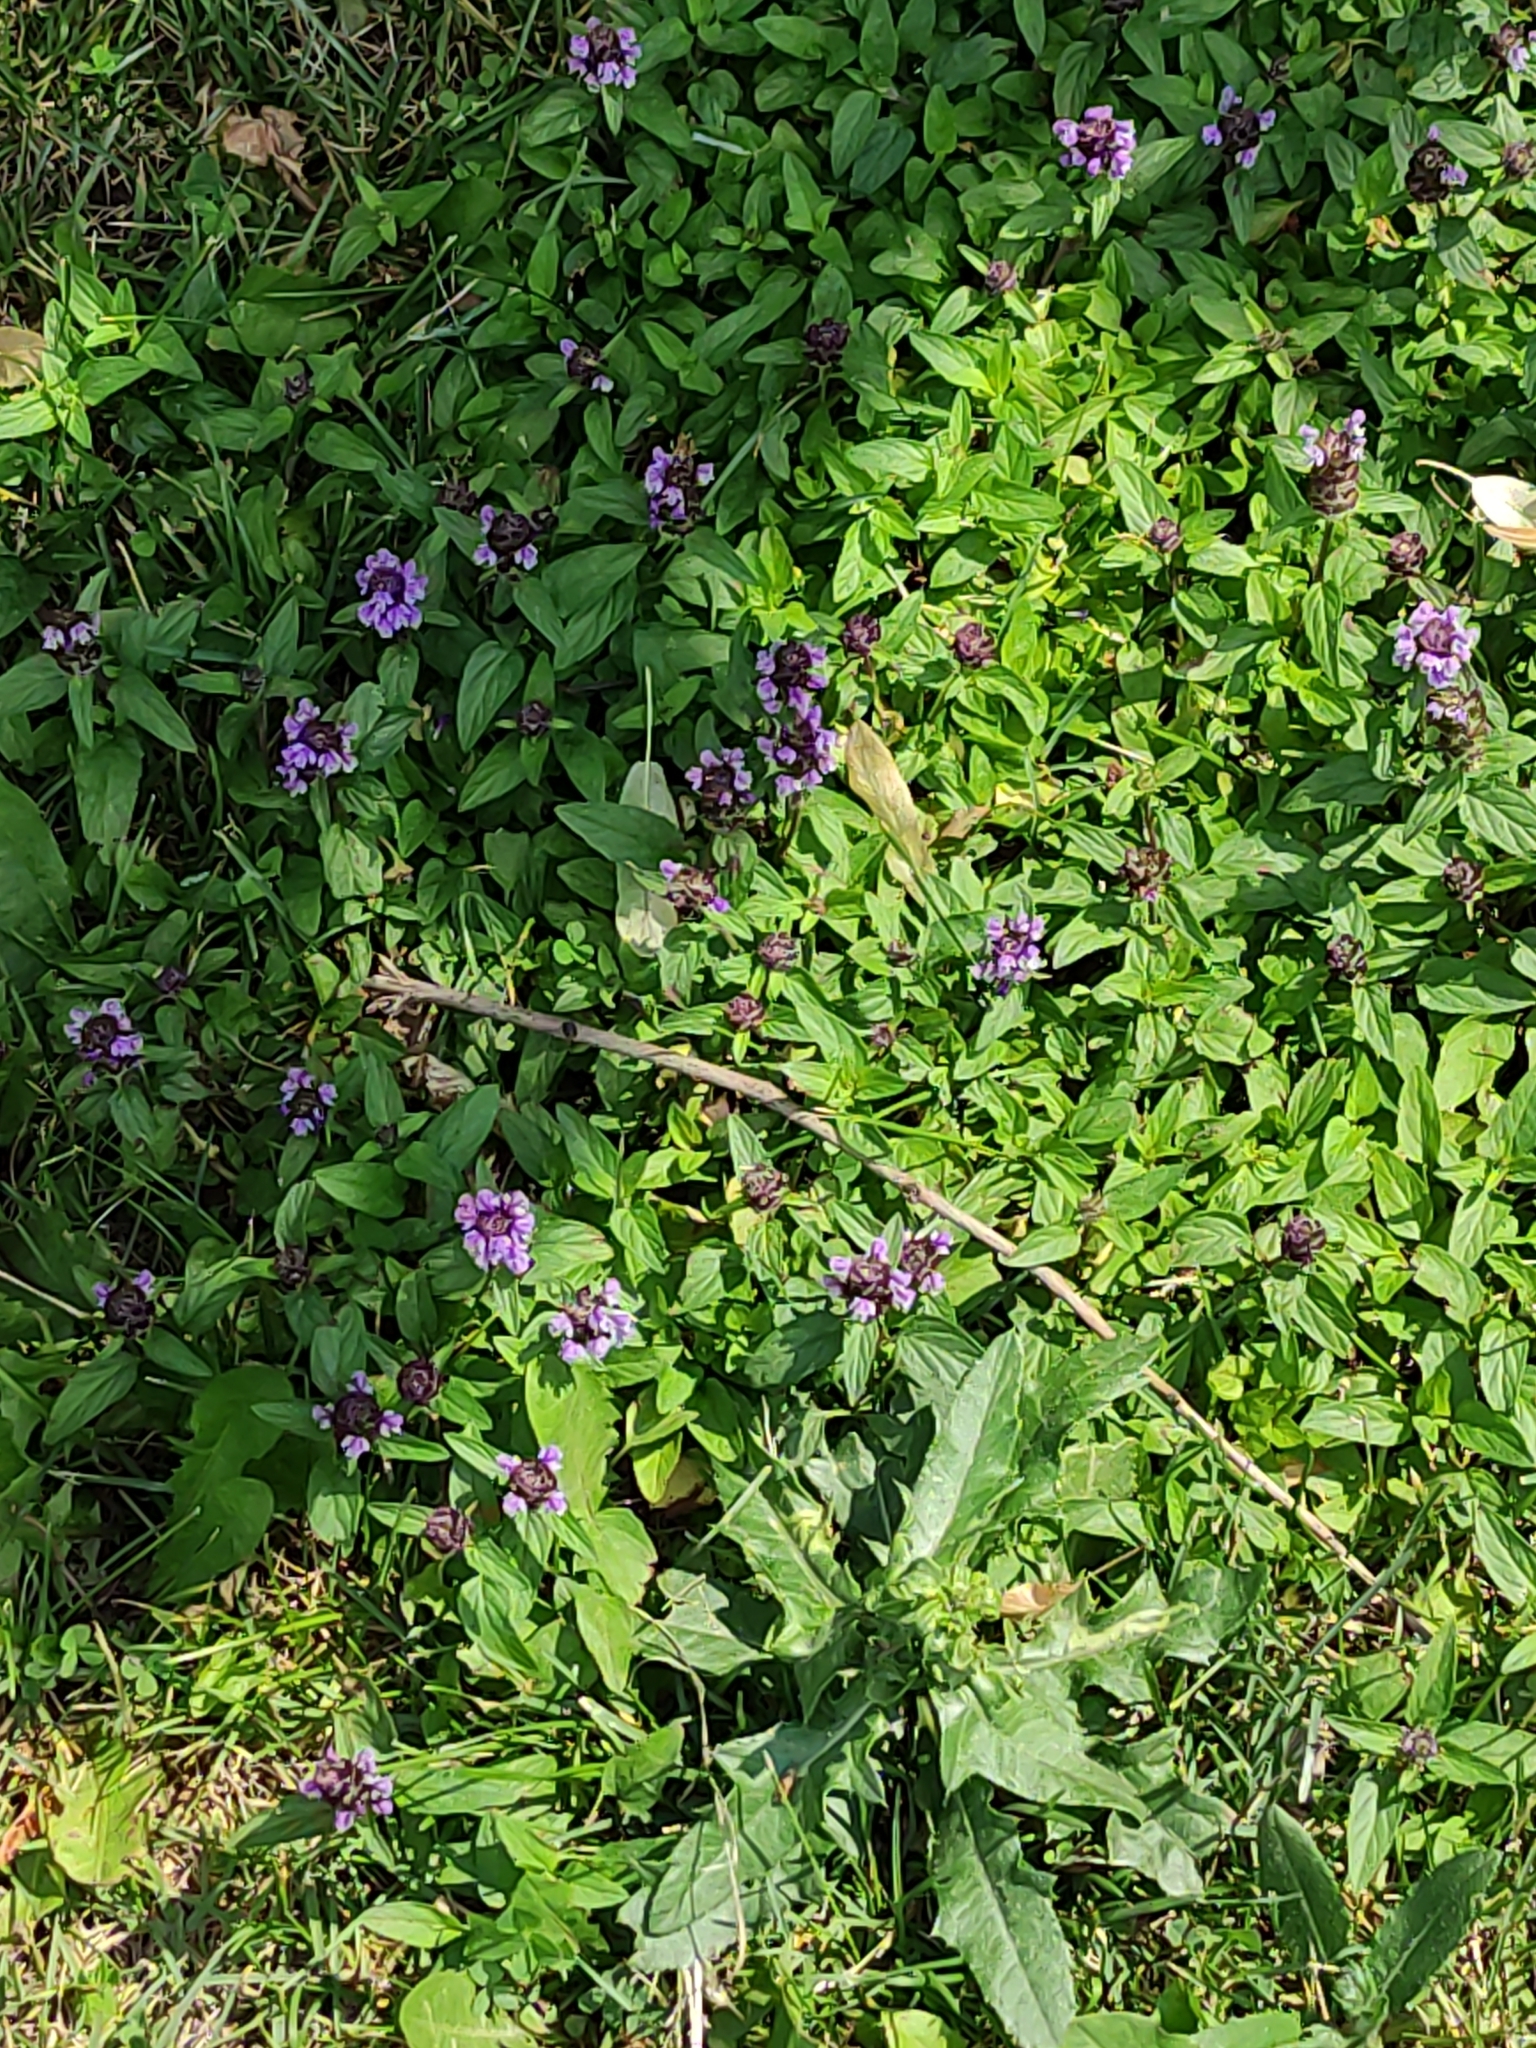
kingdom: Plantae
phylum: Tracheophyta
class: Magnoliopsida
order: Lamiales
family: Lamiaceae
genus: Prunella
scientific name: Prunella vulgaris
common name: Heal-all
